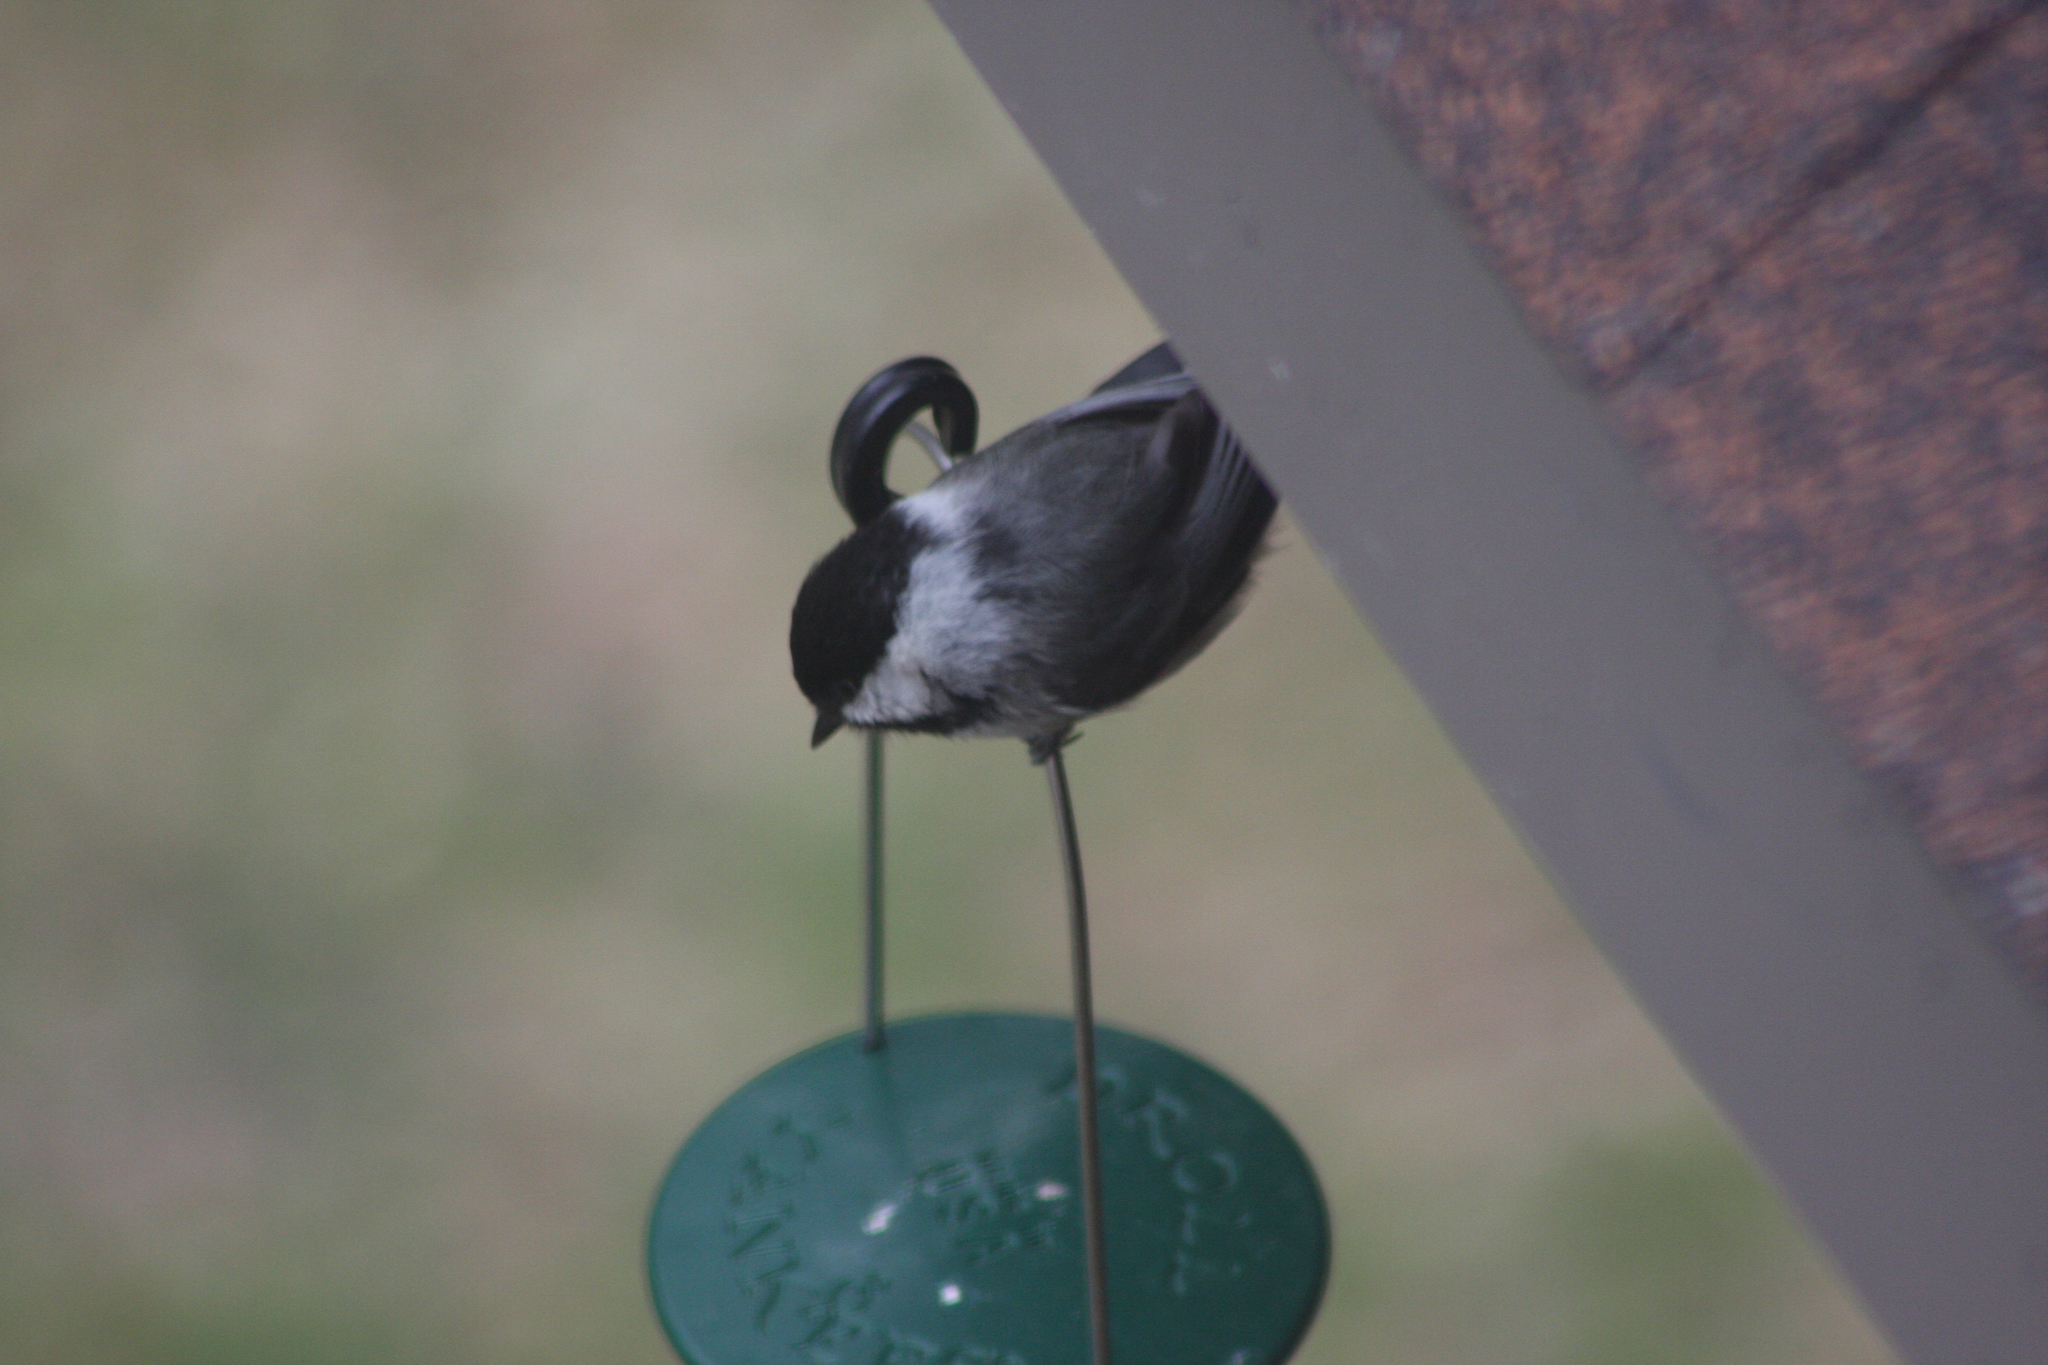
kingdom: Animalia
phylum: Chordata
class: Aves
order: Passeriformes
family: Paridae
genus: Poecile
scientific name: Poecile atricapillus
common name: Black-capped chickadee
